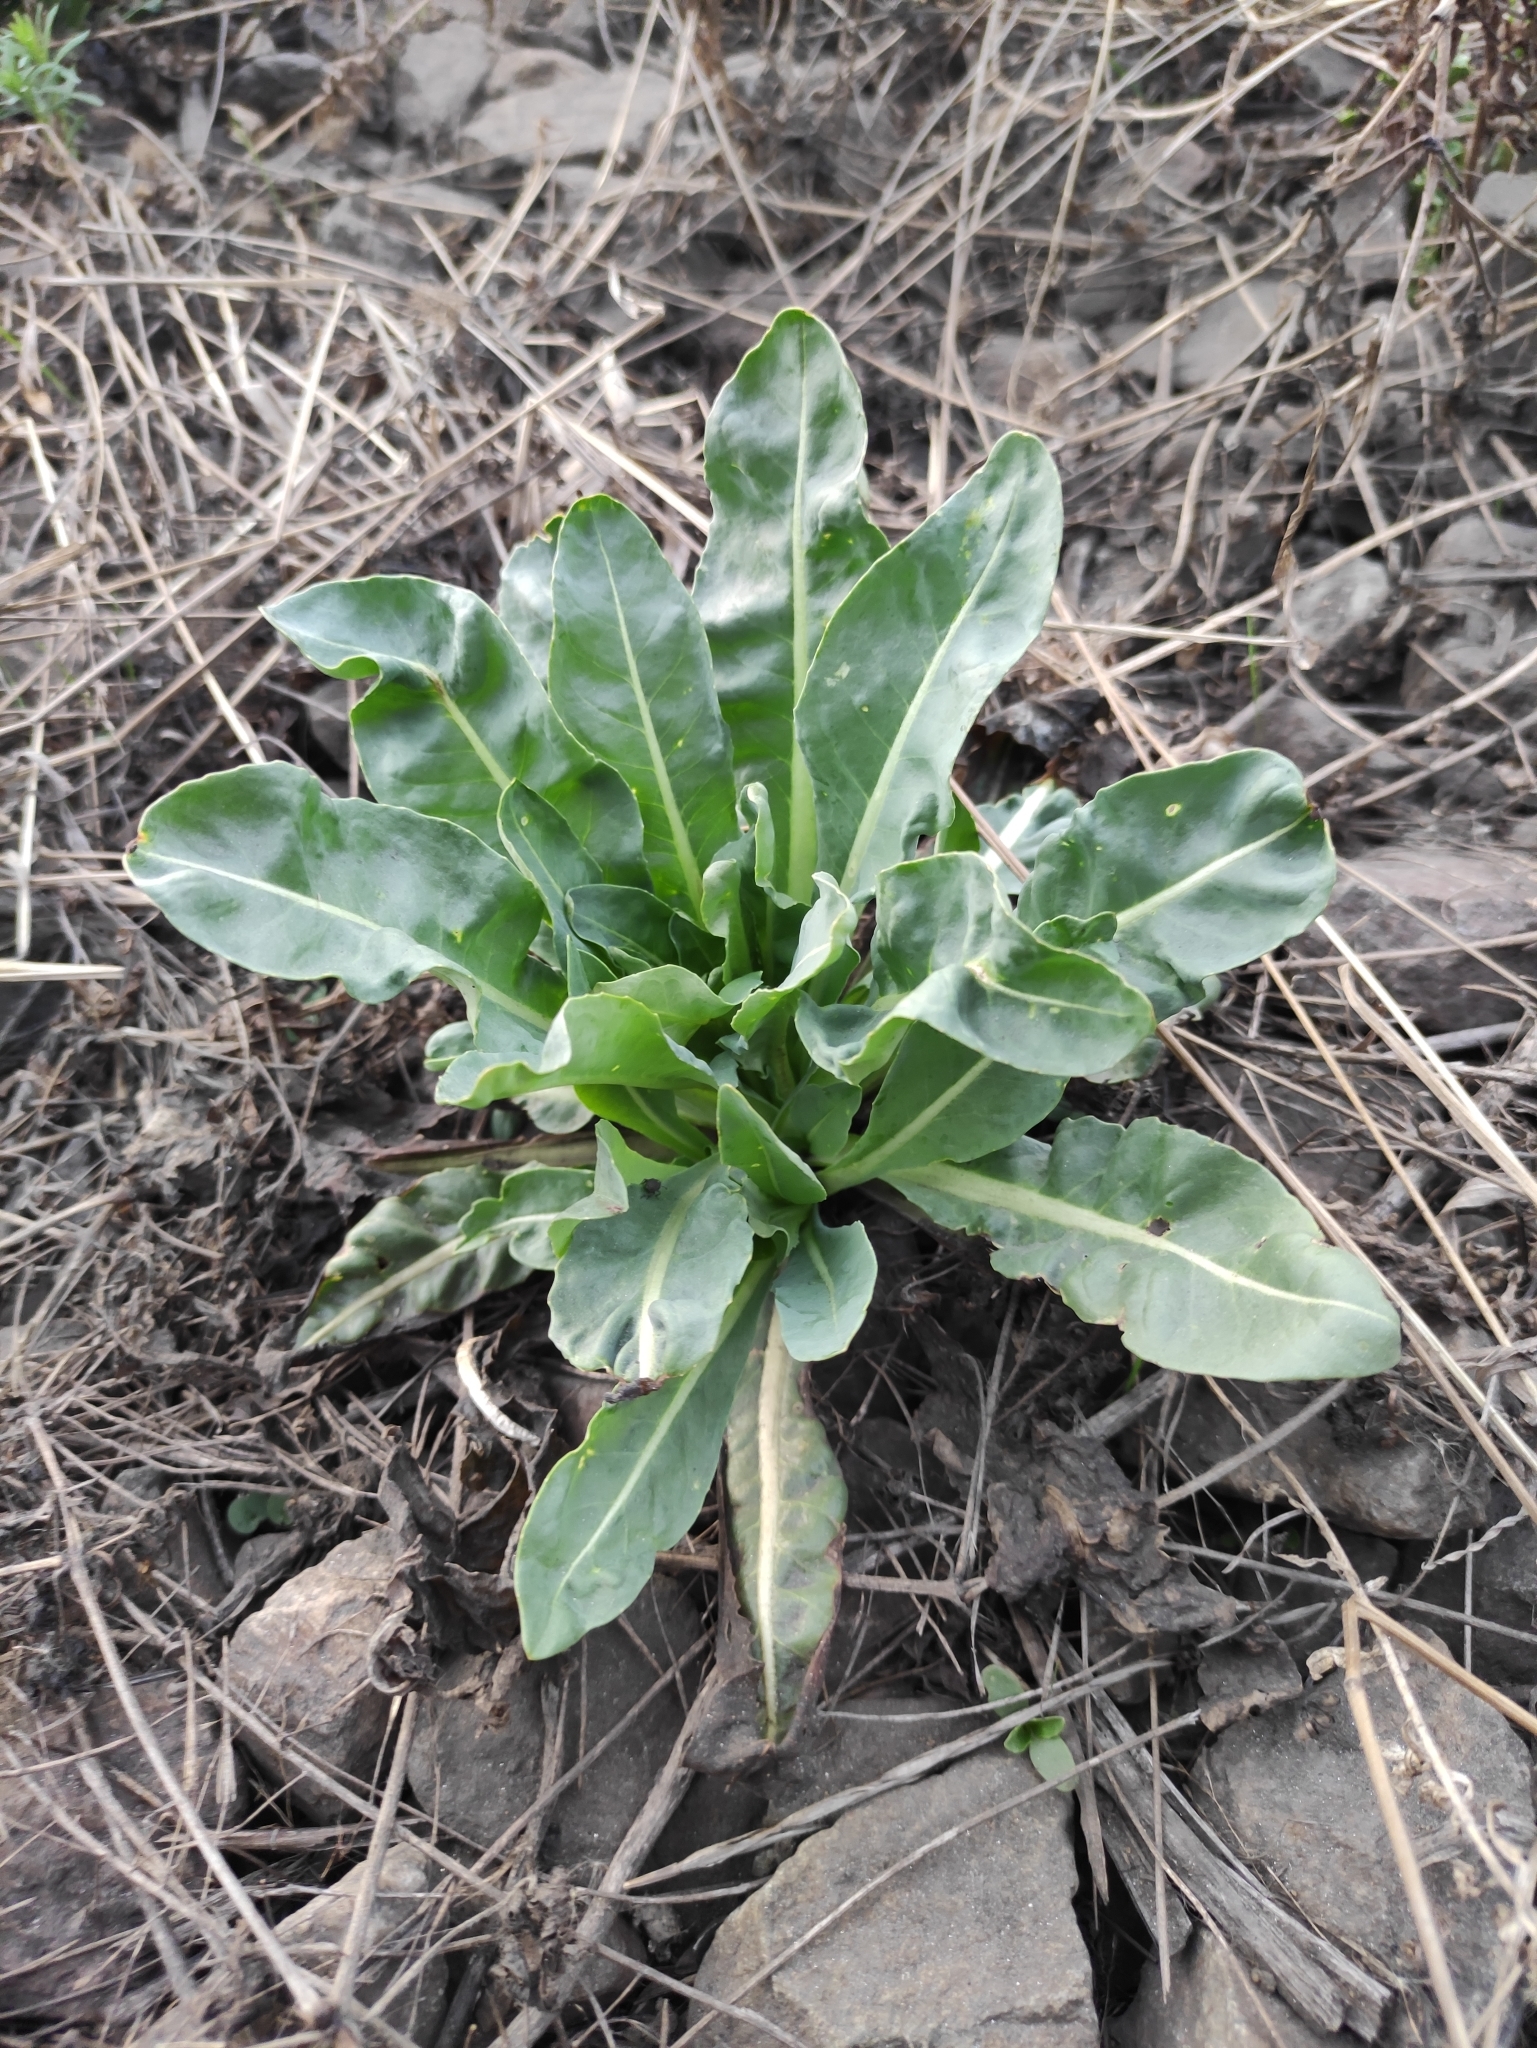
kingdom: Plantae
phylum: Tracheophyta
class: Magnoliopsida
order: Brassicales
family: Brassicaceae
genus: Isatis
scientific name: Isatis tinctoria
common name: Woad
